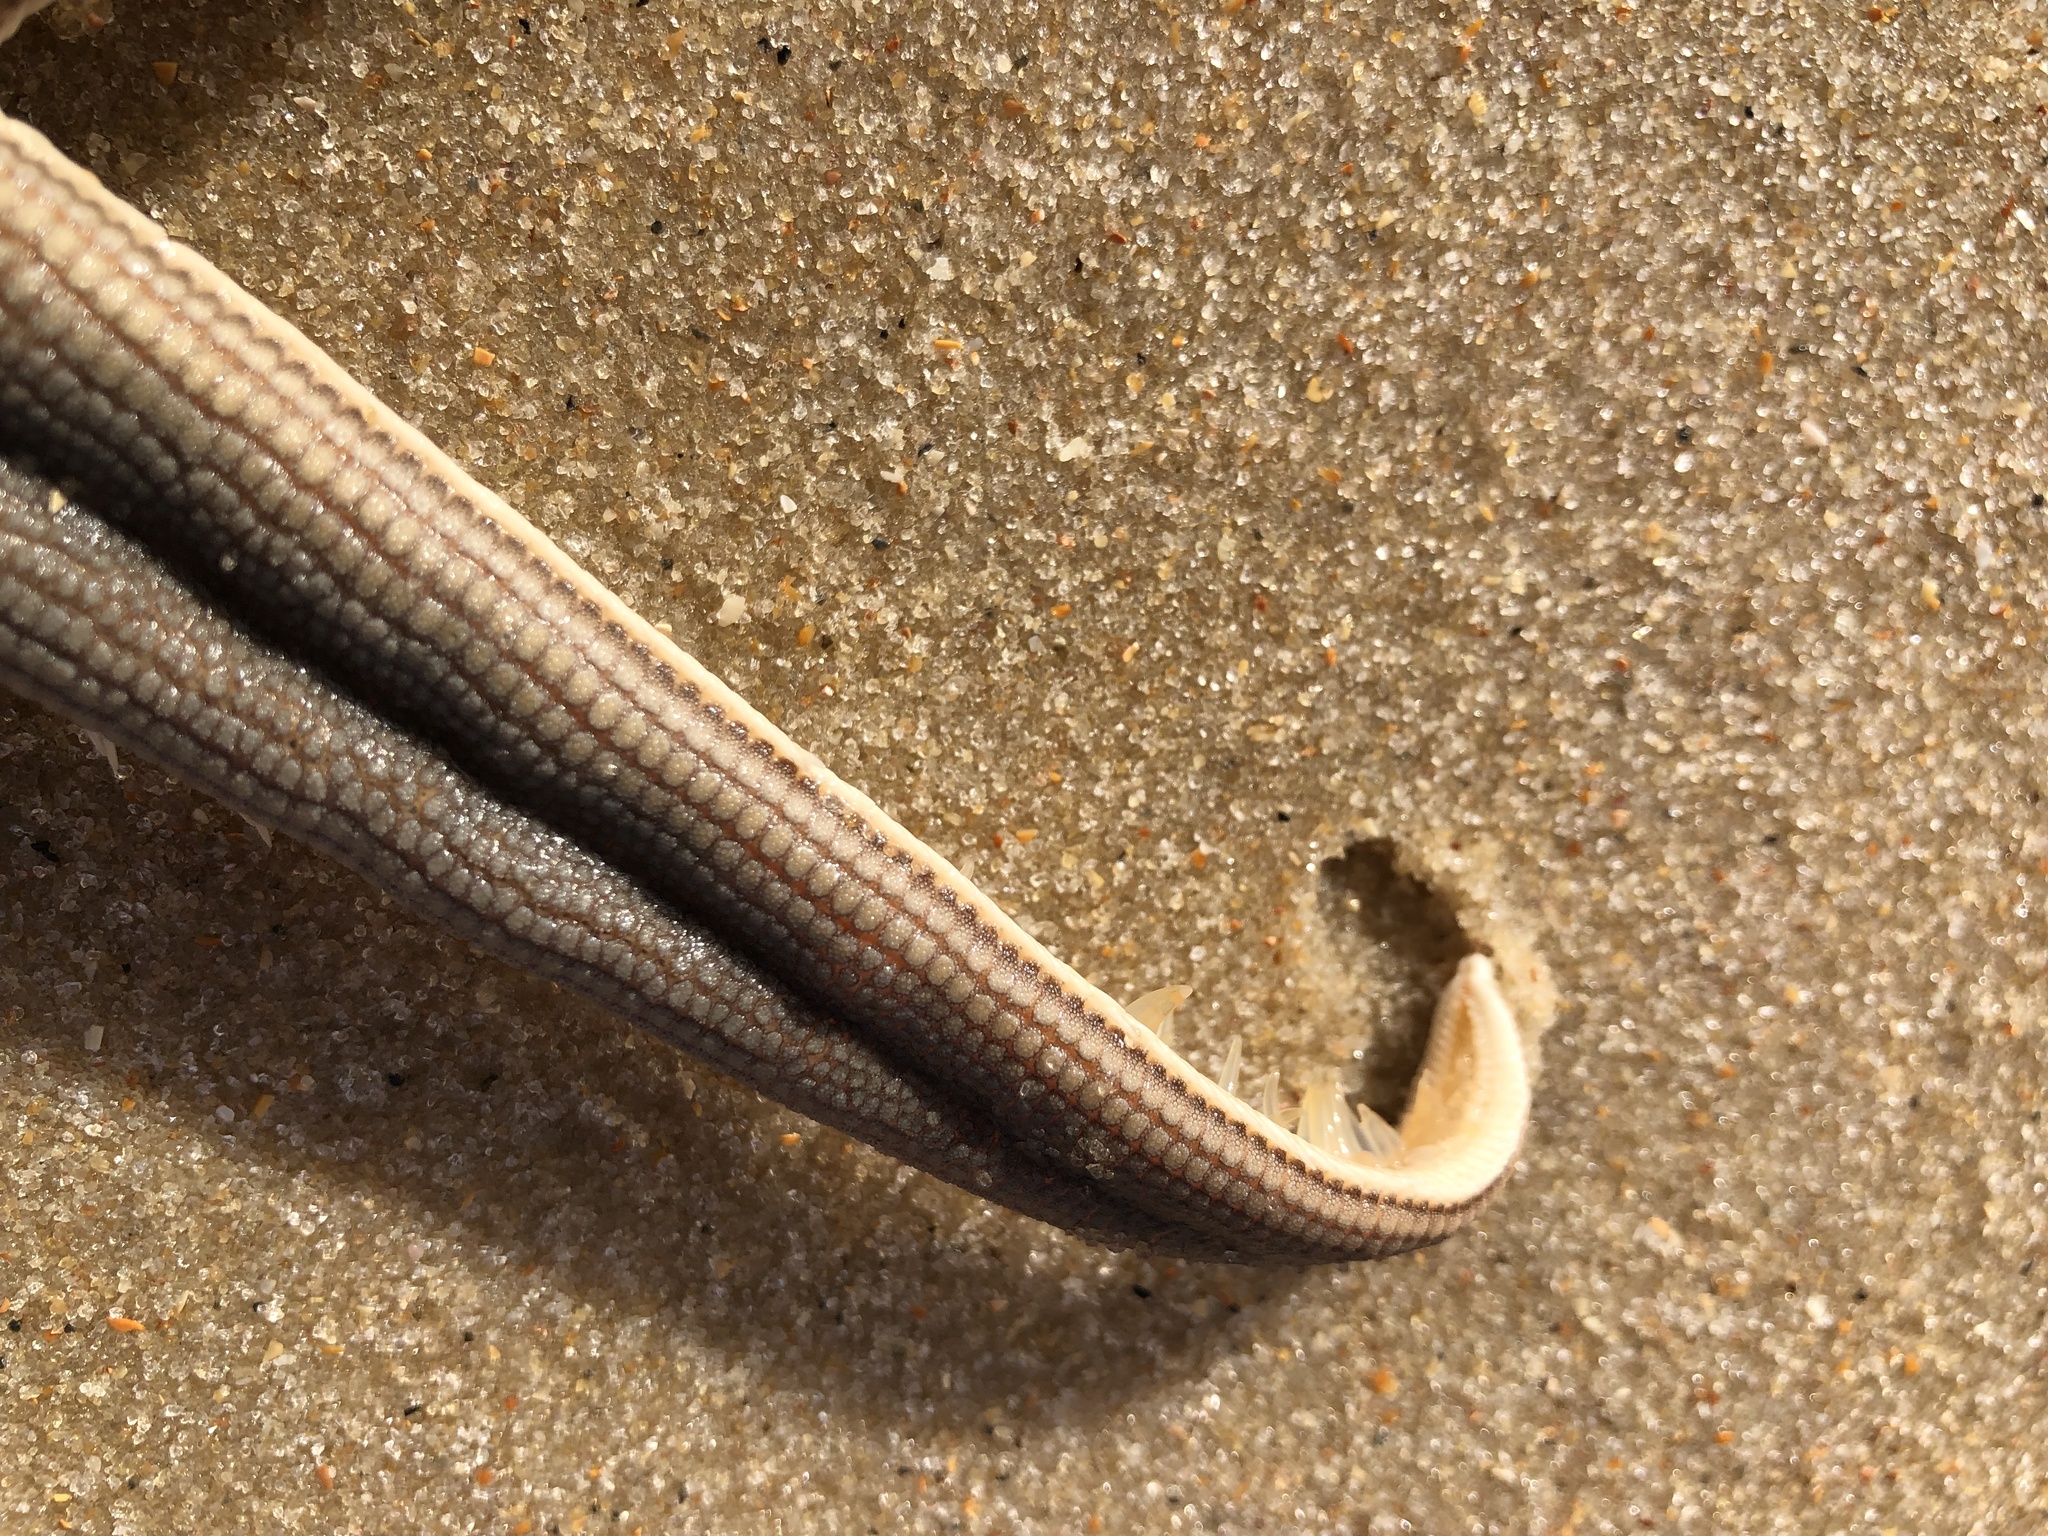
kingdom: Animalia
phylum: Echinodermata
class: Asteroidea
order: Paxillosida
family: Luidiidae
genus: Luidia
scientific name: Luidia clathrata
